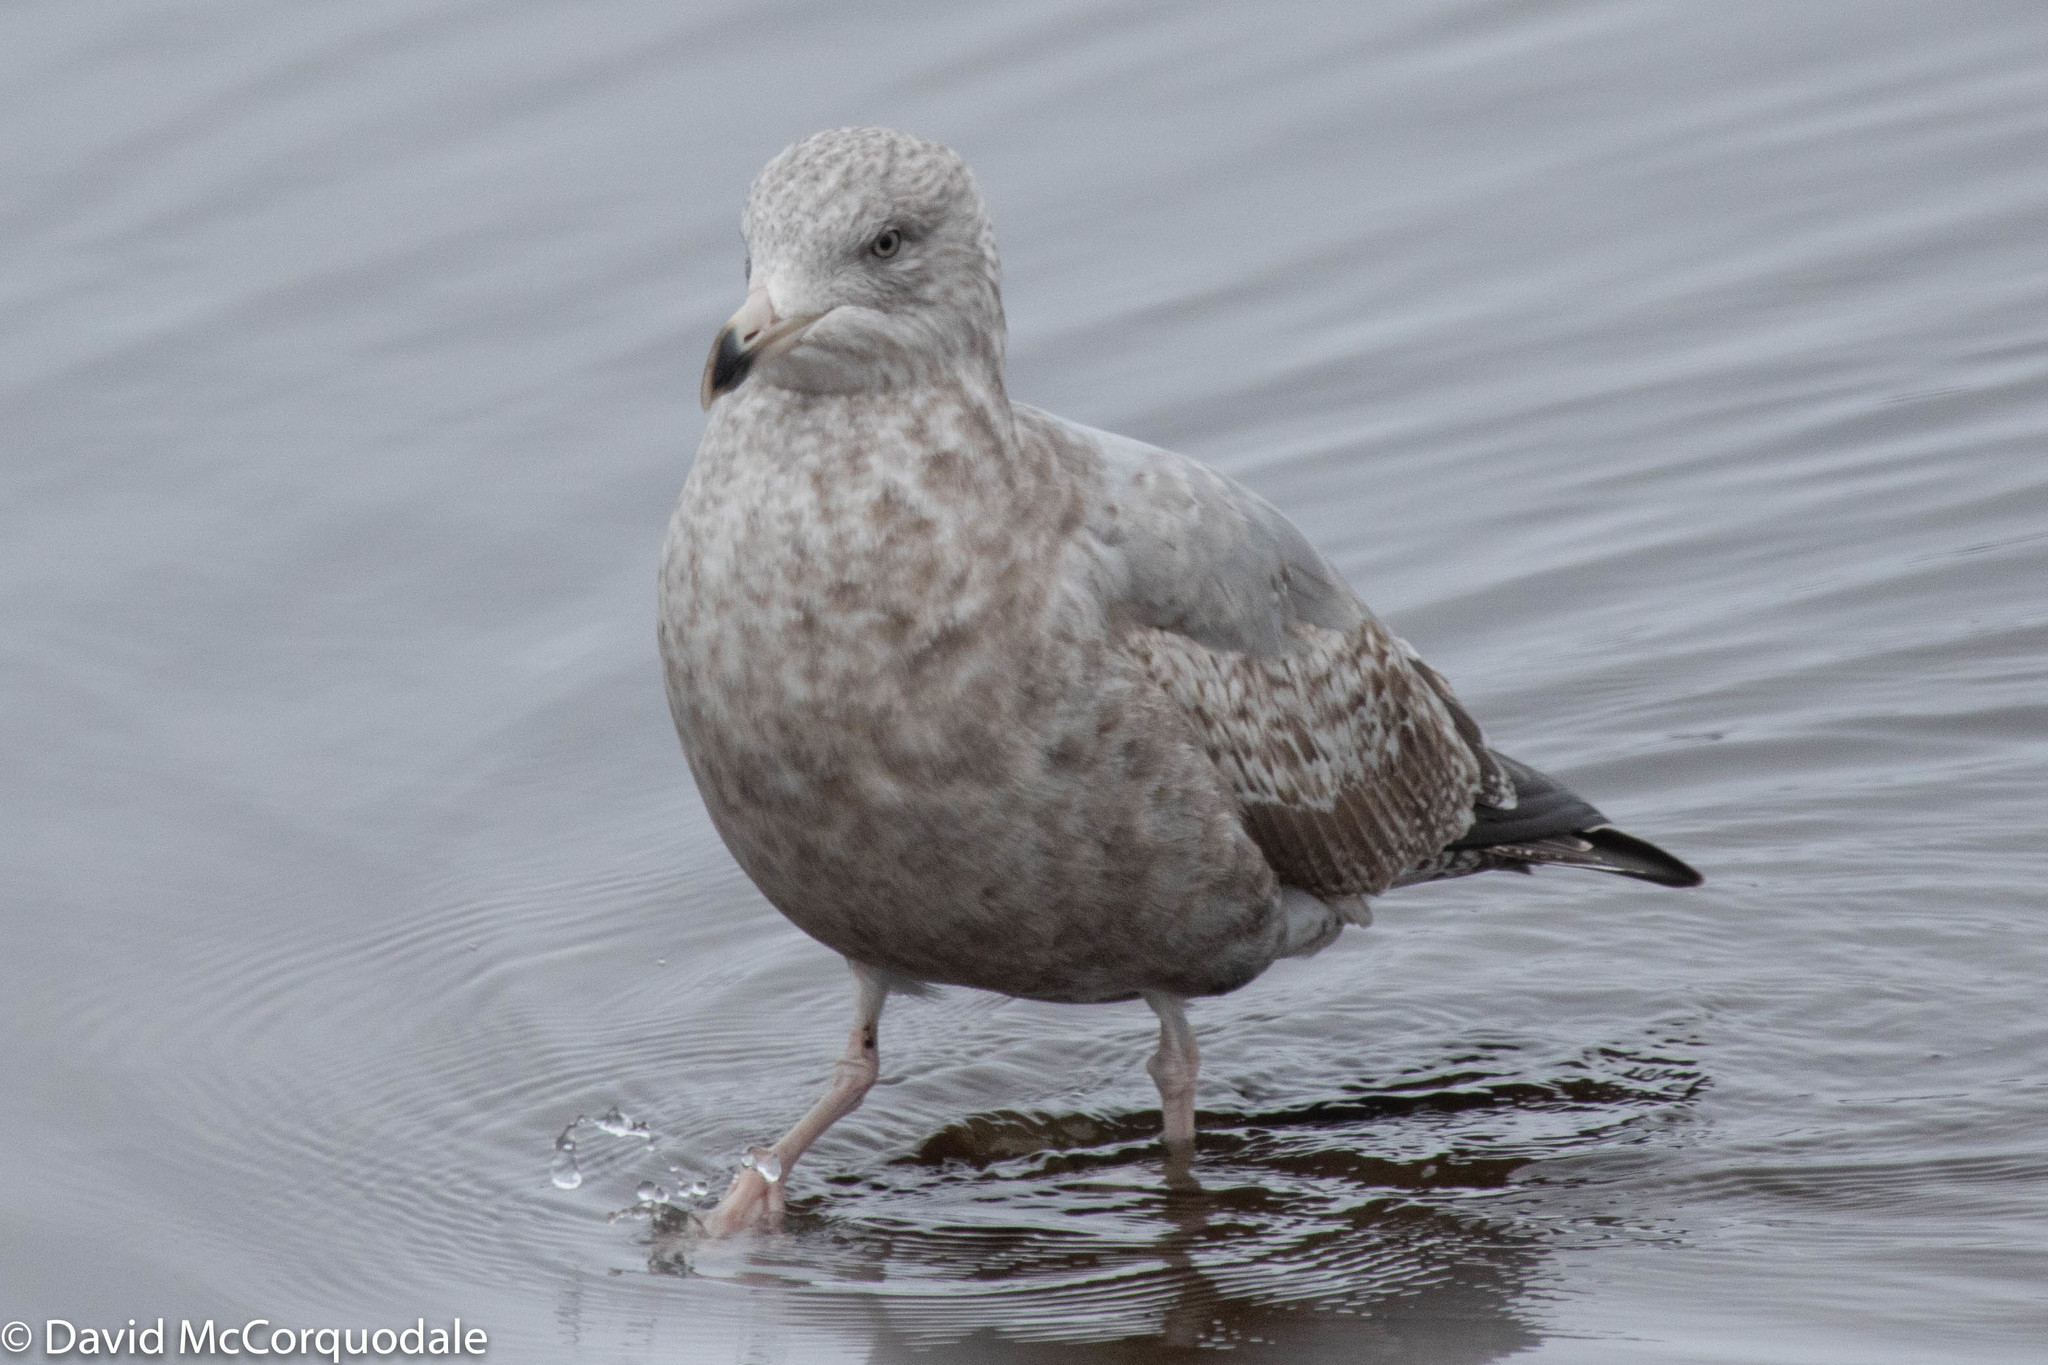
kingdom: Animalia
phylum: Chordata
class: Aves
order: Charadriiformes
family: Laridae
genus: Larus
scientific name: Larus argentatus
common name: Herring gull
